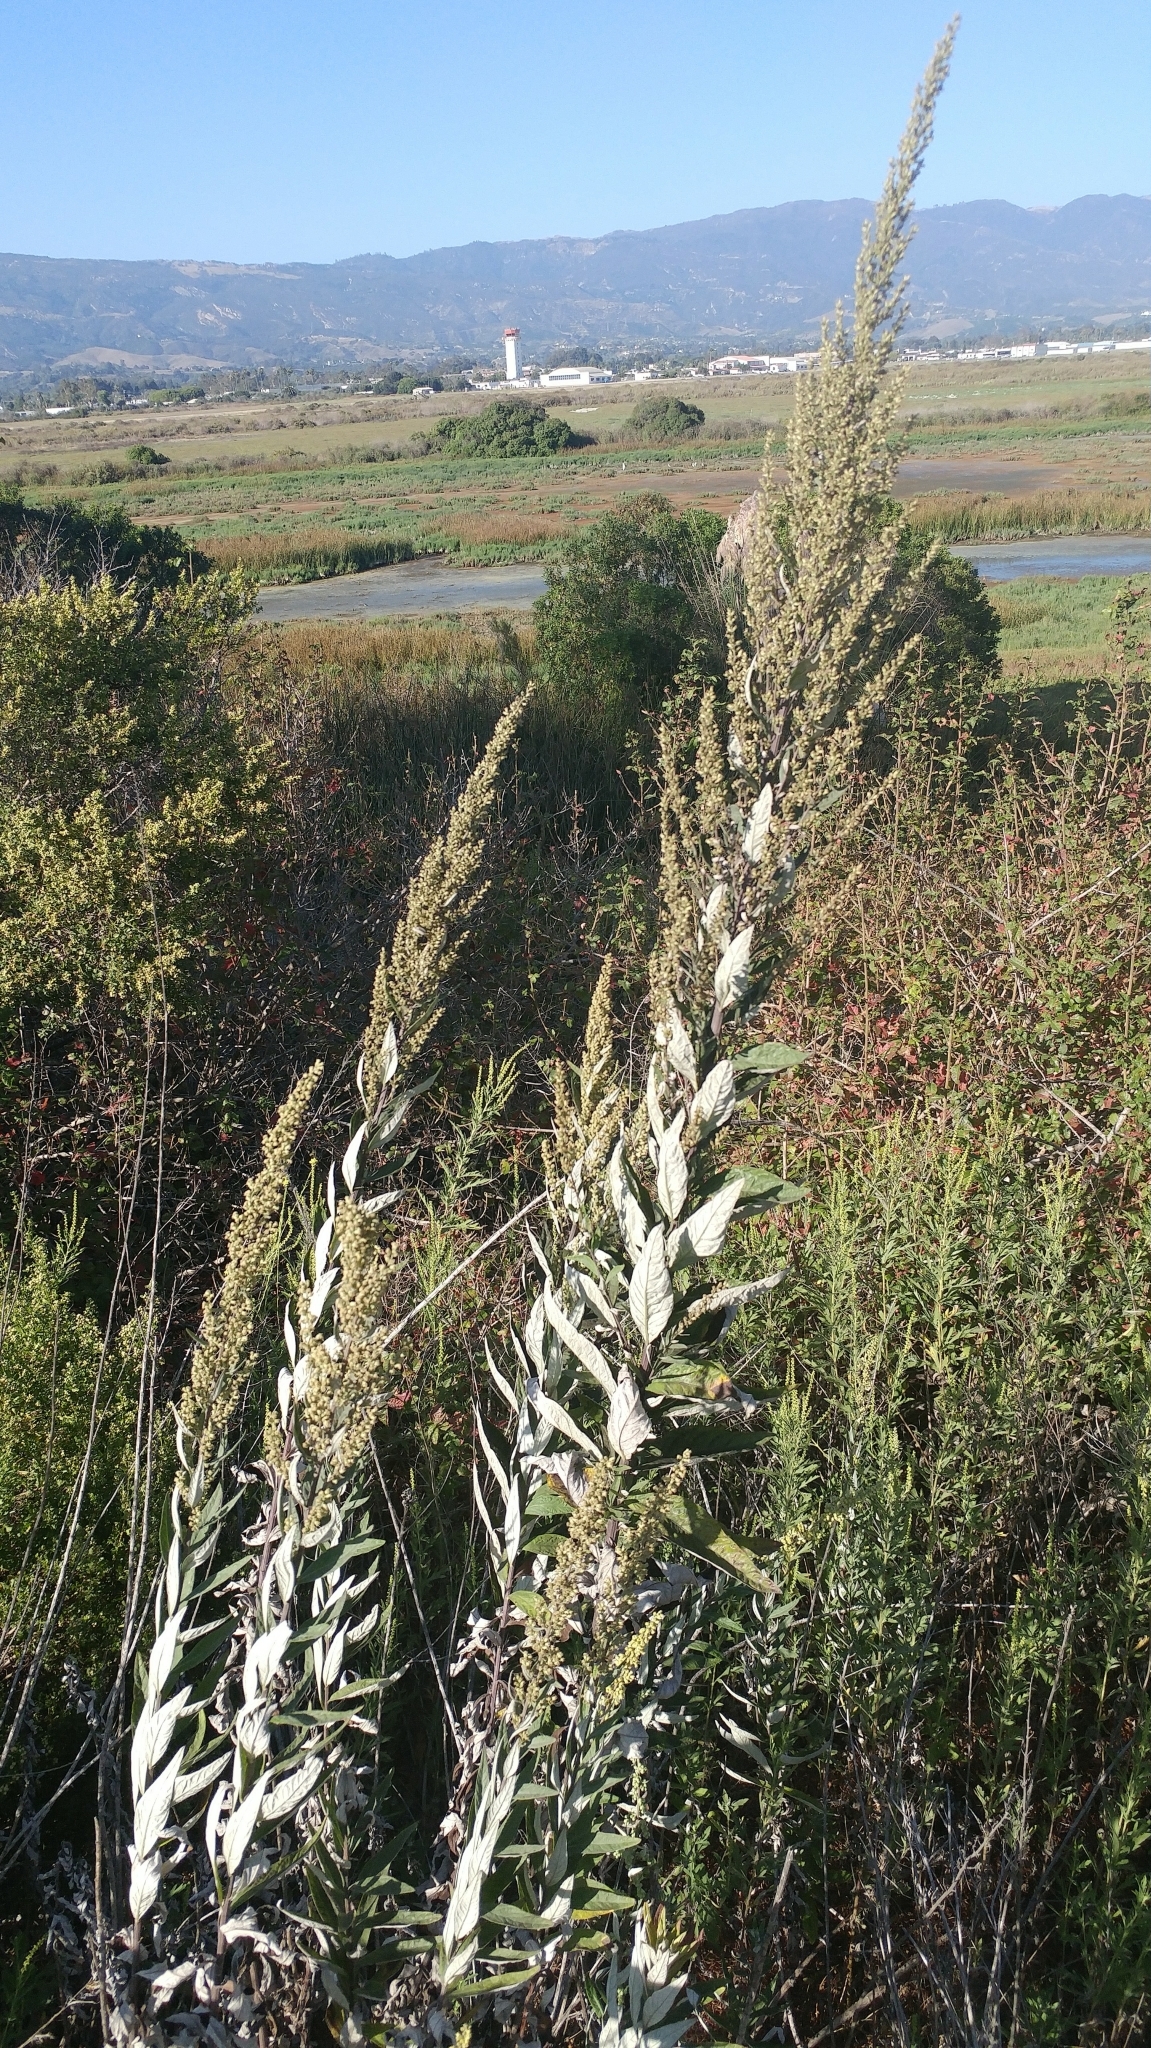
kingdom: Plantae
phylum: Tracheophyta
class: Magnoliopsida
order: Asterales
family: Asteraceae
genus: Artemisia
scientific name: Artemisia douglasiana
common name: Northwest mugwort
